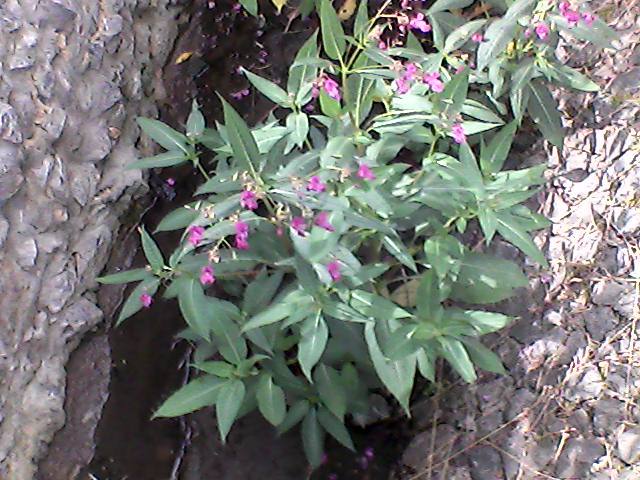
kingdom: Plantae
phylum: Tracheophyta
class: Magnoliopsida
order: Ericales
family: Balsaminaceae
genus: Impatiens
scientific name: Impatiens glandulifera
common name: Himalayan balsam
